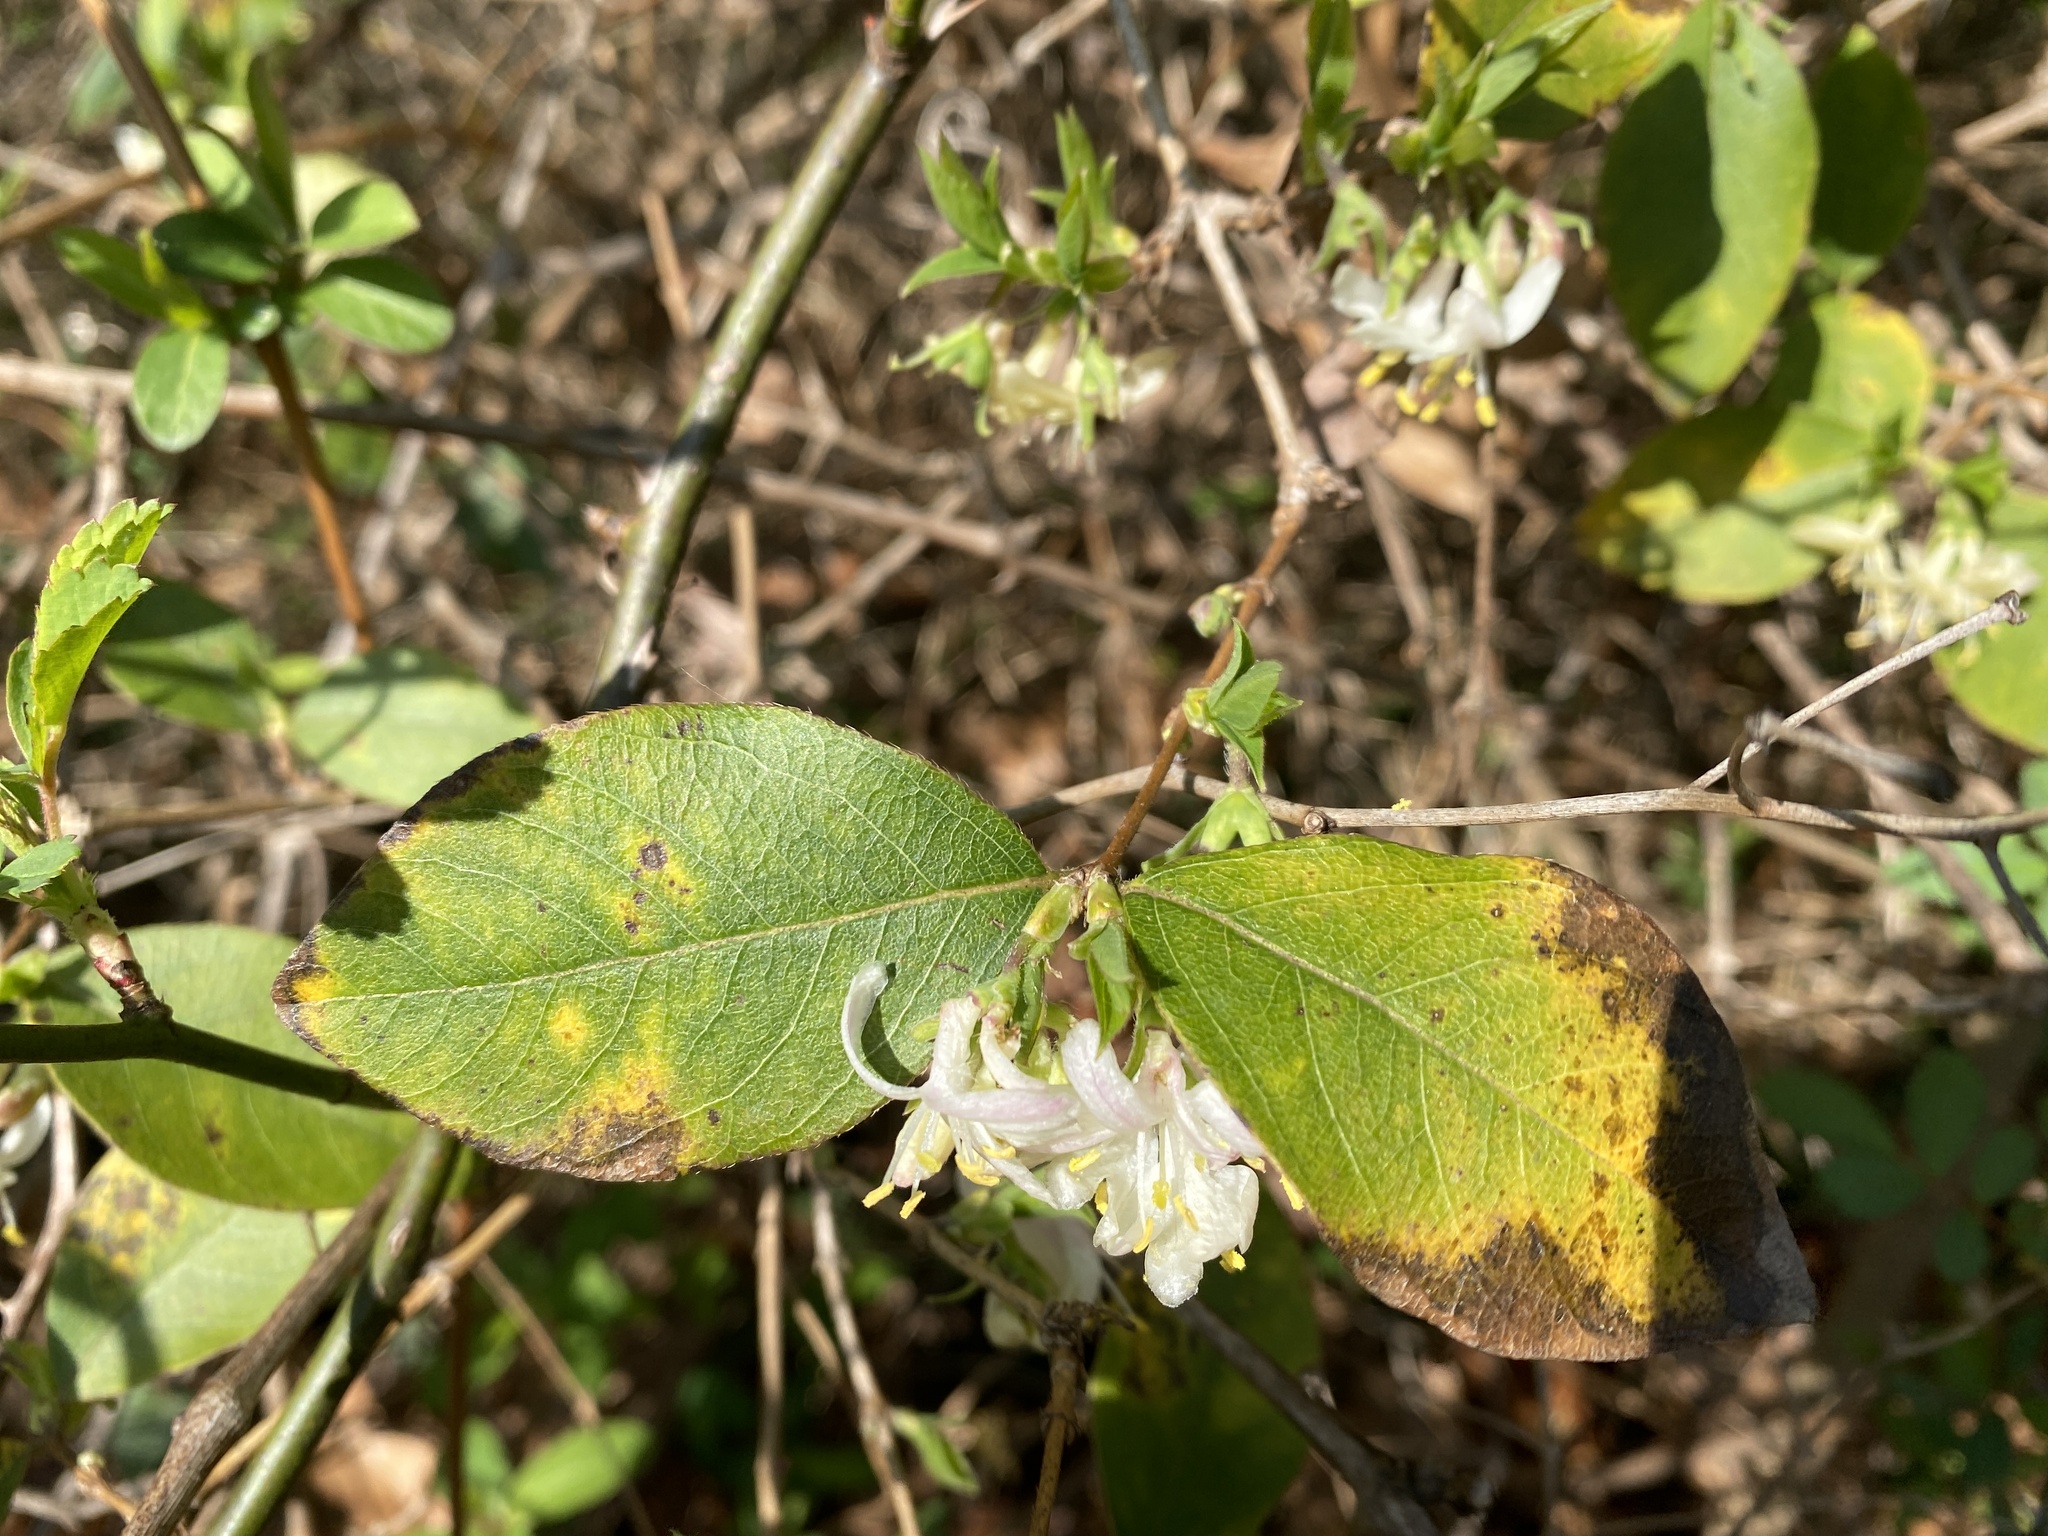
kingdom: Plantae
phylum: Tracheophyta
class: Magnoliopsida
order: Dipsacales
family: Caprifoliaceae
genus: Lonicera
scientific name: Lonicera fragrantissima
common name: Fragrant honeysuckle
